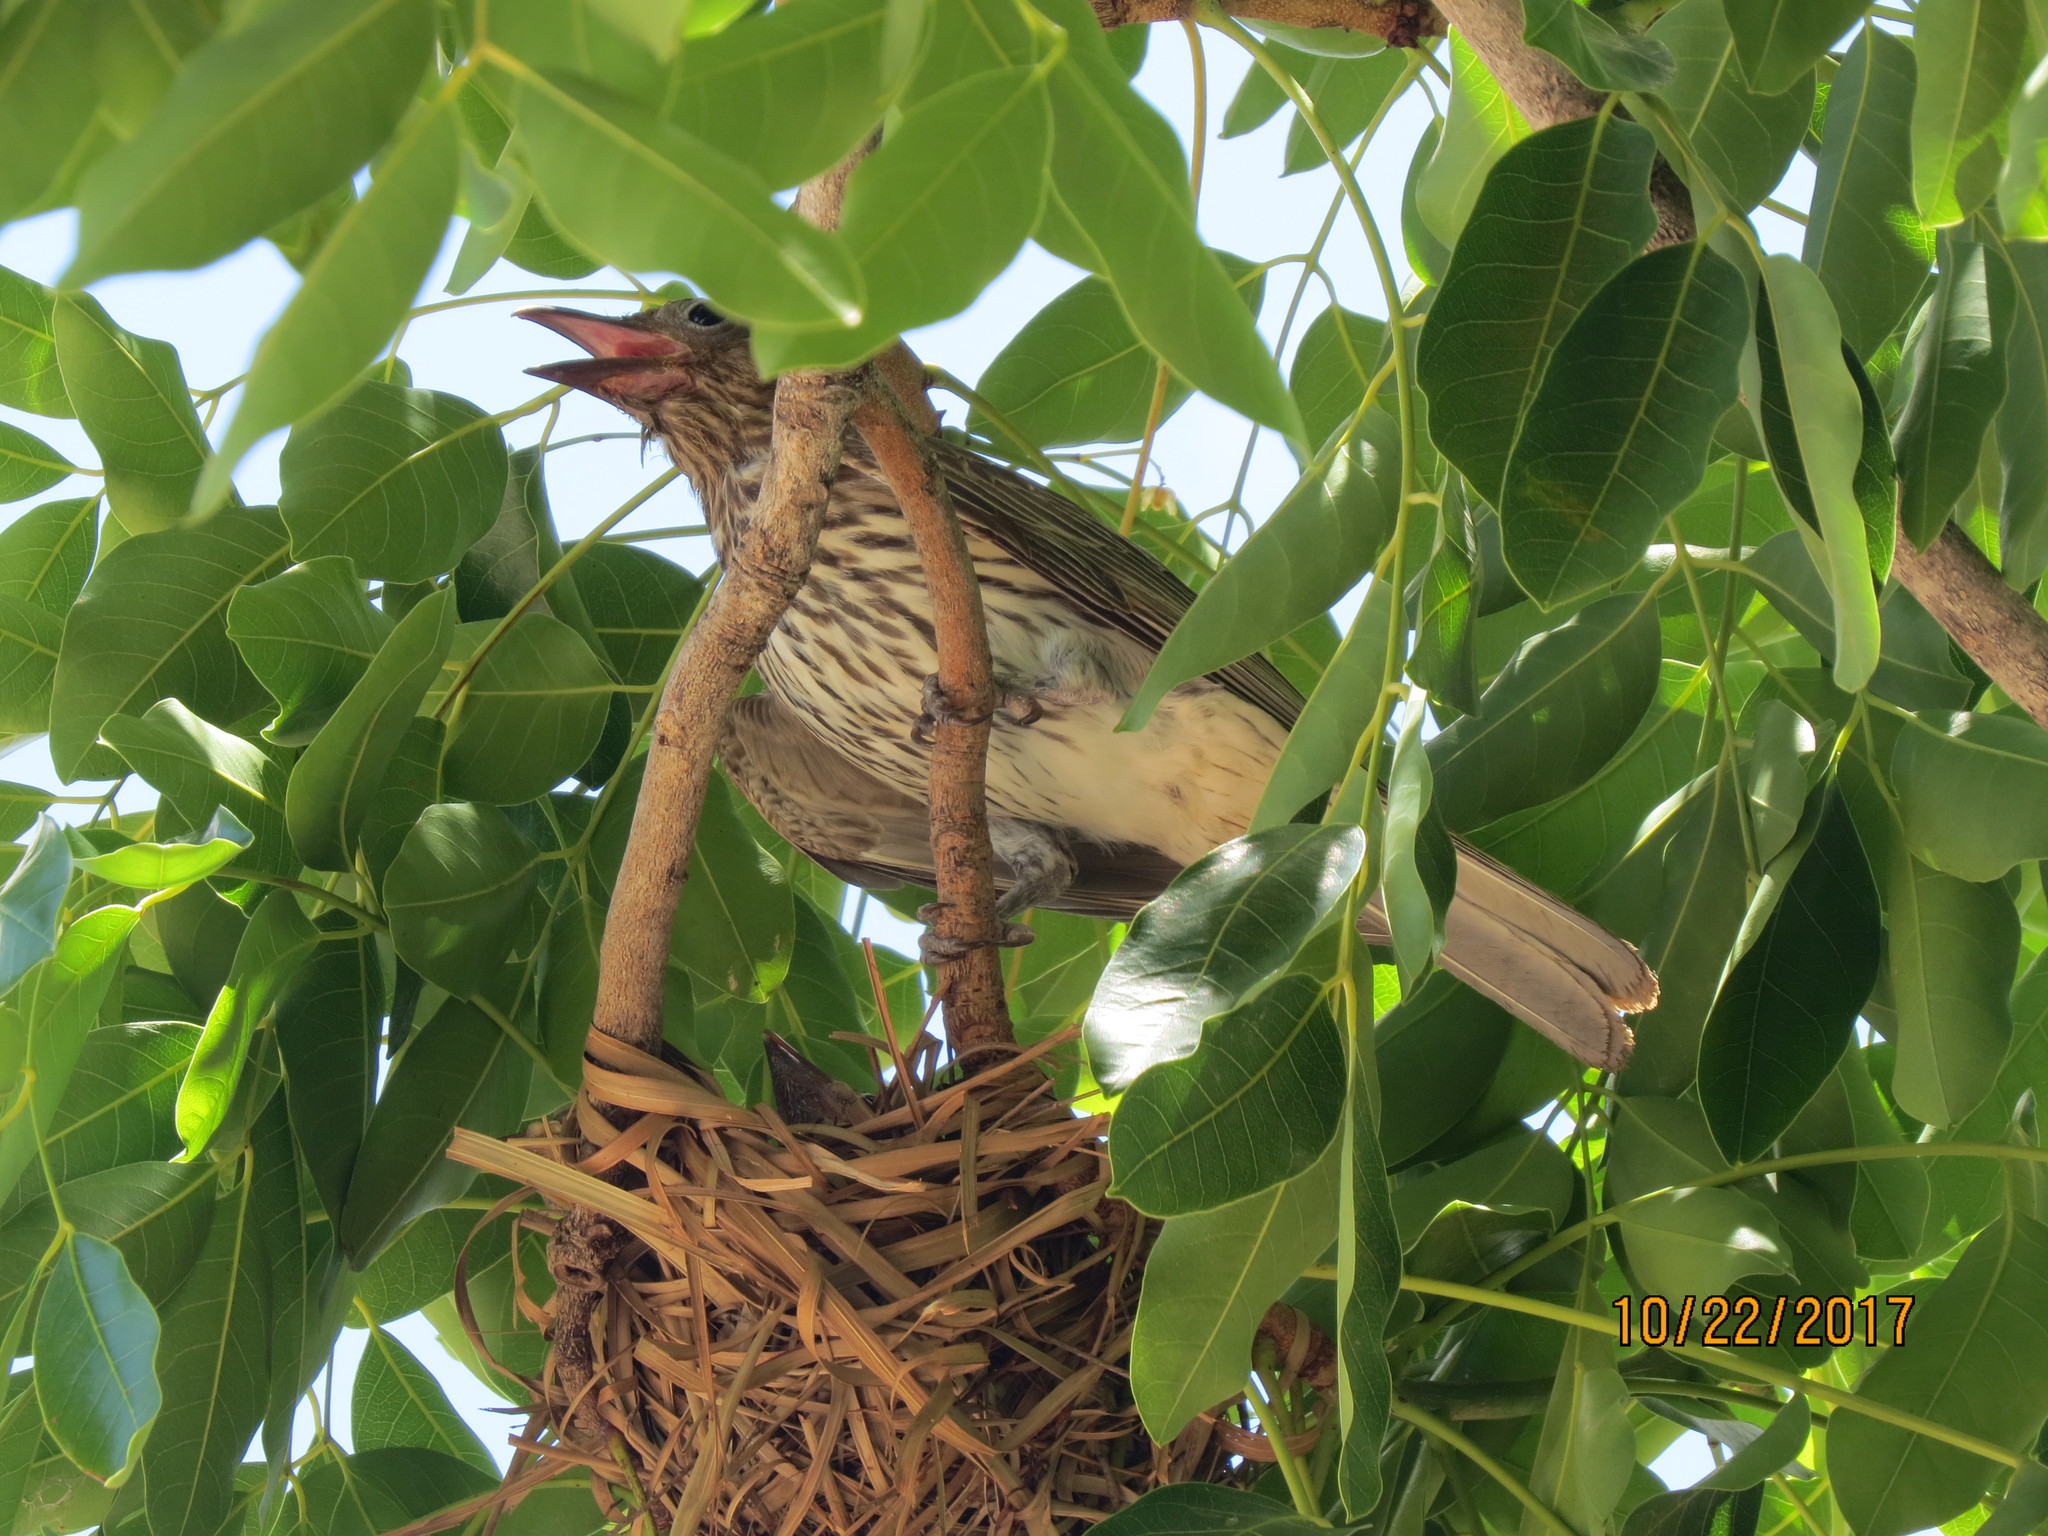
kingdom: Animalia
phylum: Chordata
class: Aves
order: Passeriformes
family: Oriolidae
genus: Sphecotheres
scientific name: Sphecotheres vieilloti
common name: Australasian figbird
